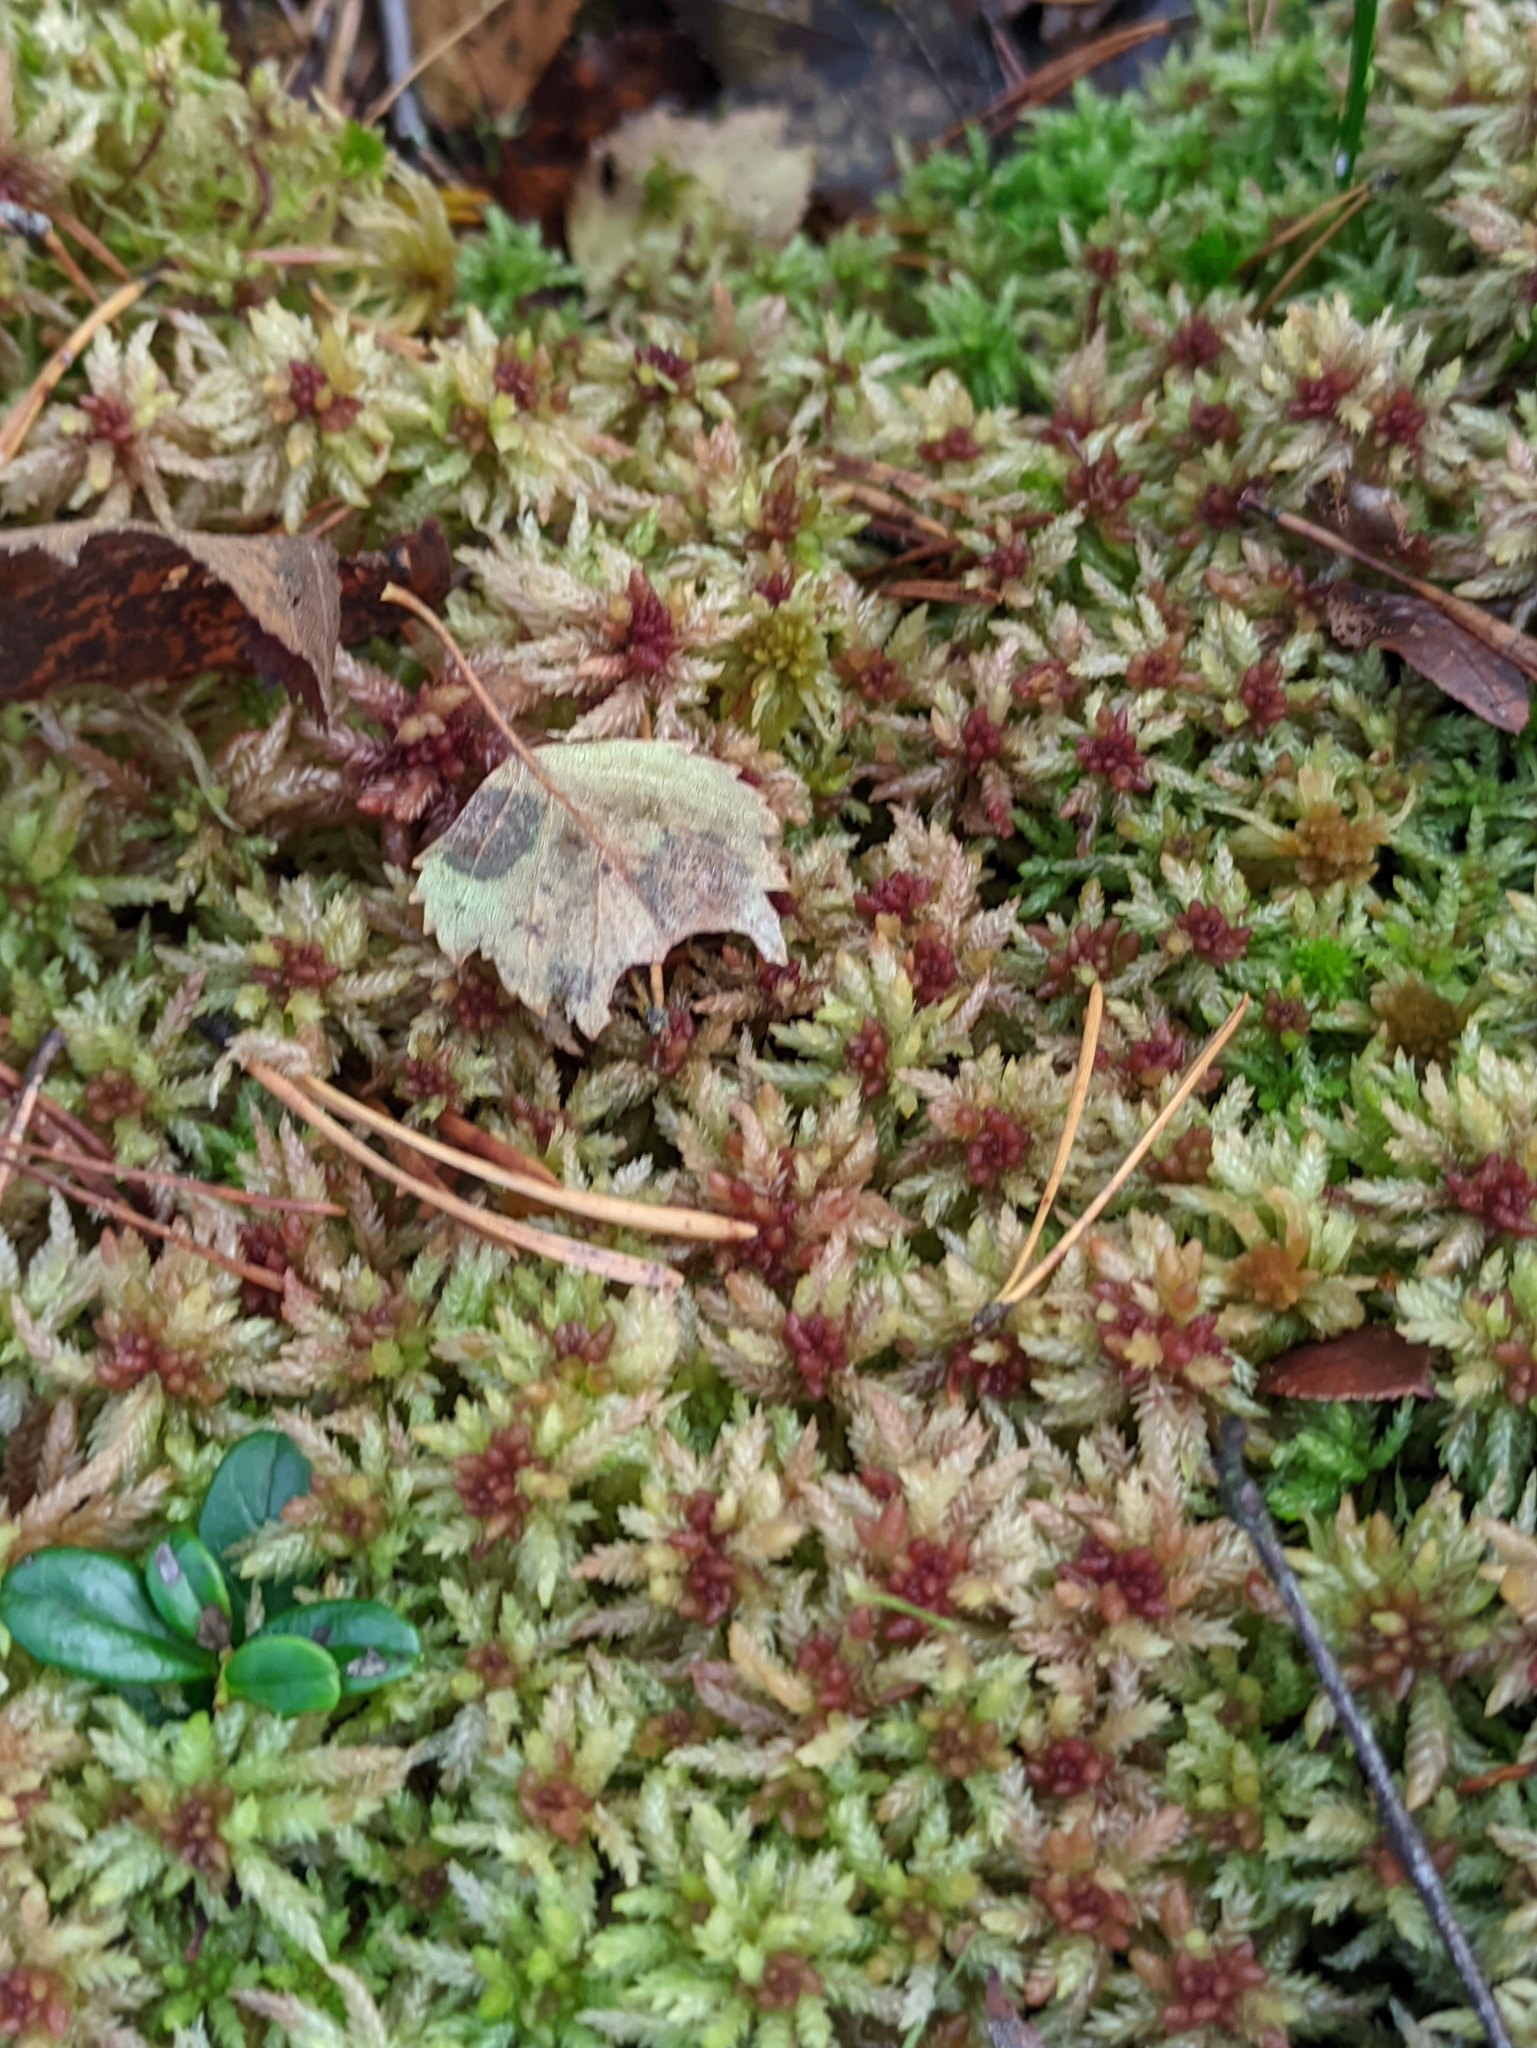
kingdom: Plantae
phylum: Bryophyta
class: Sphagnopsida
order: Sphagnales
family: Sphagnaceae
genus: Sphagnum
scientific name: Sphagnum divinum
